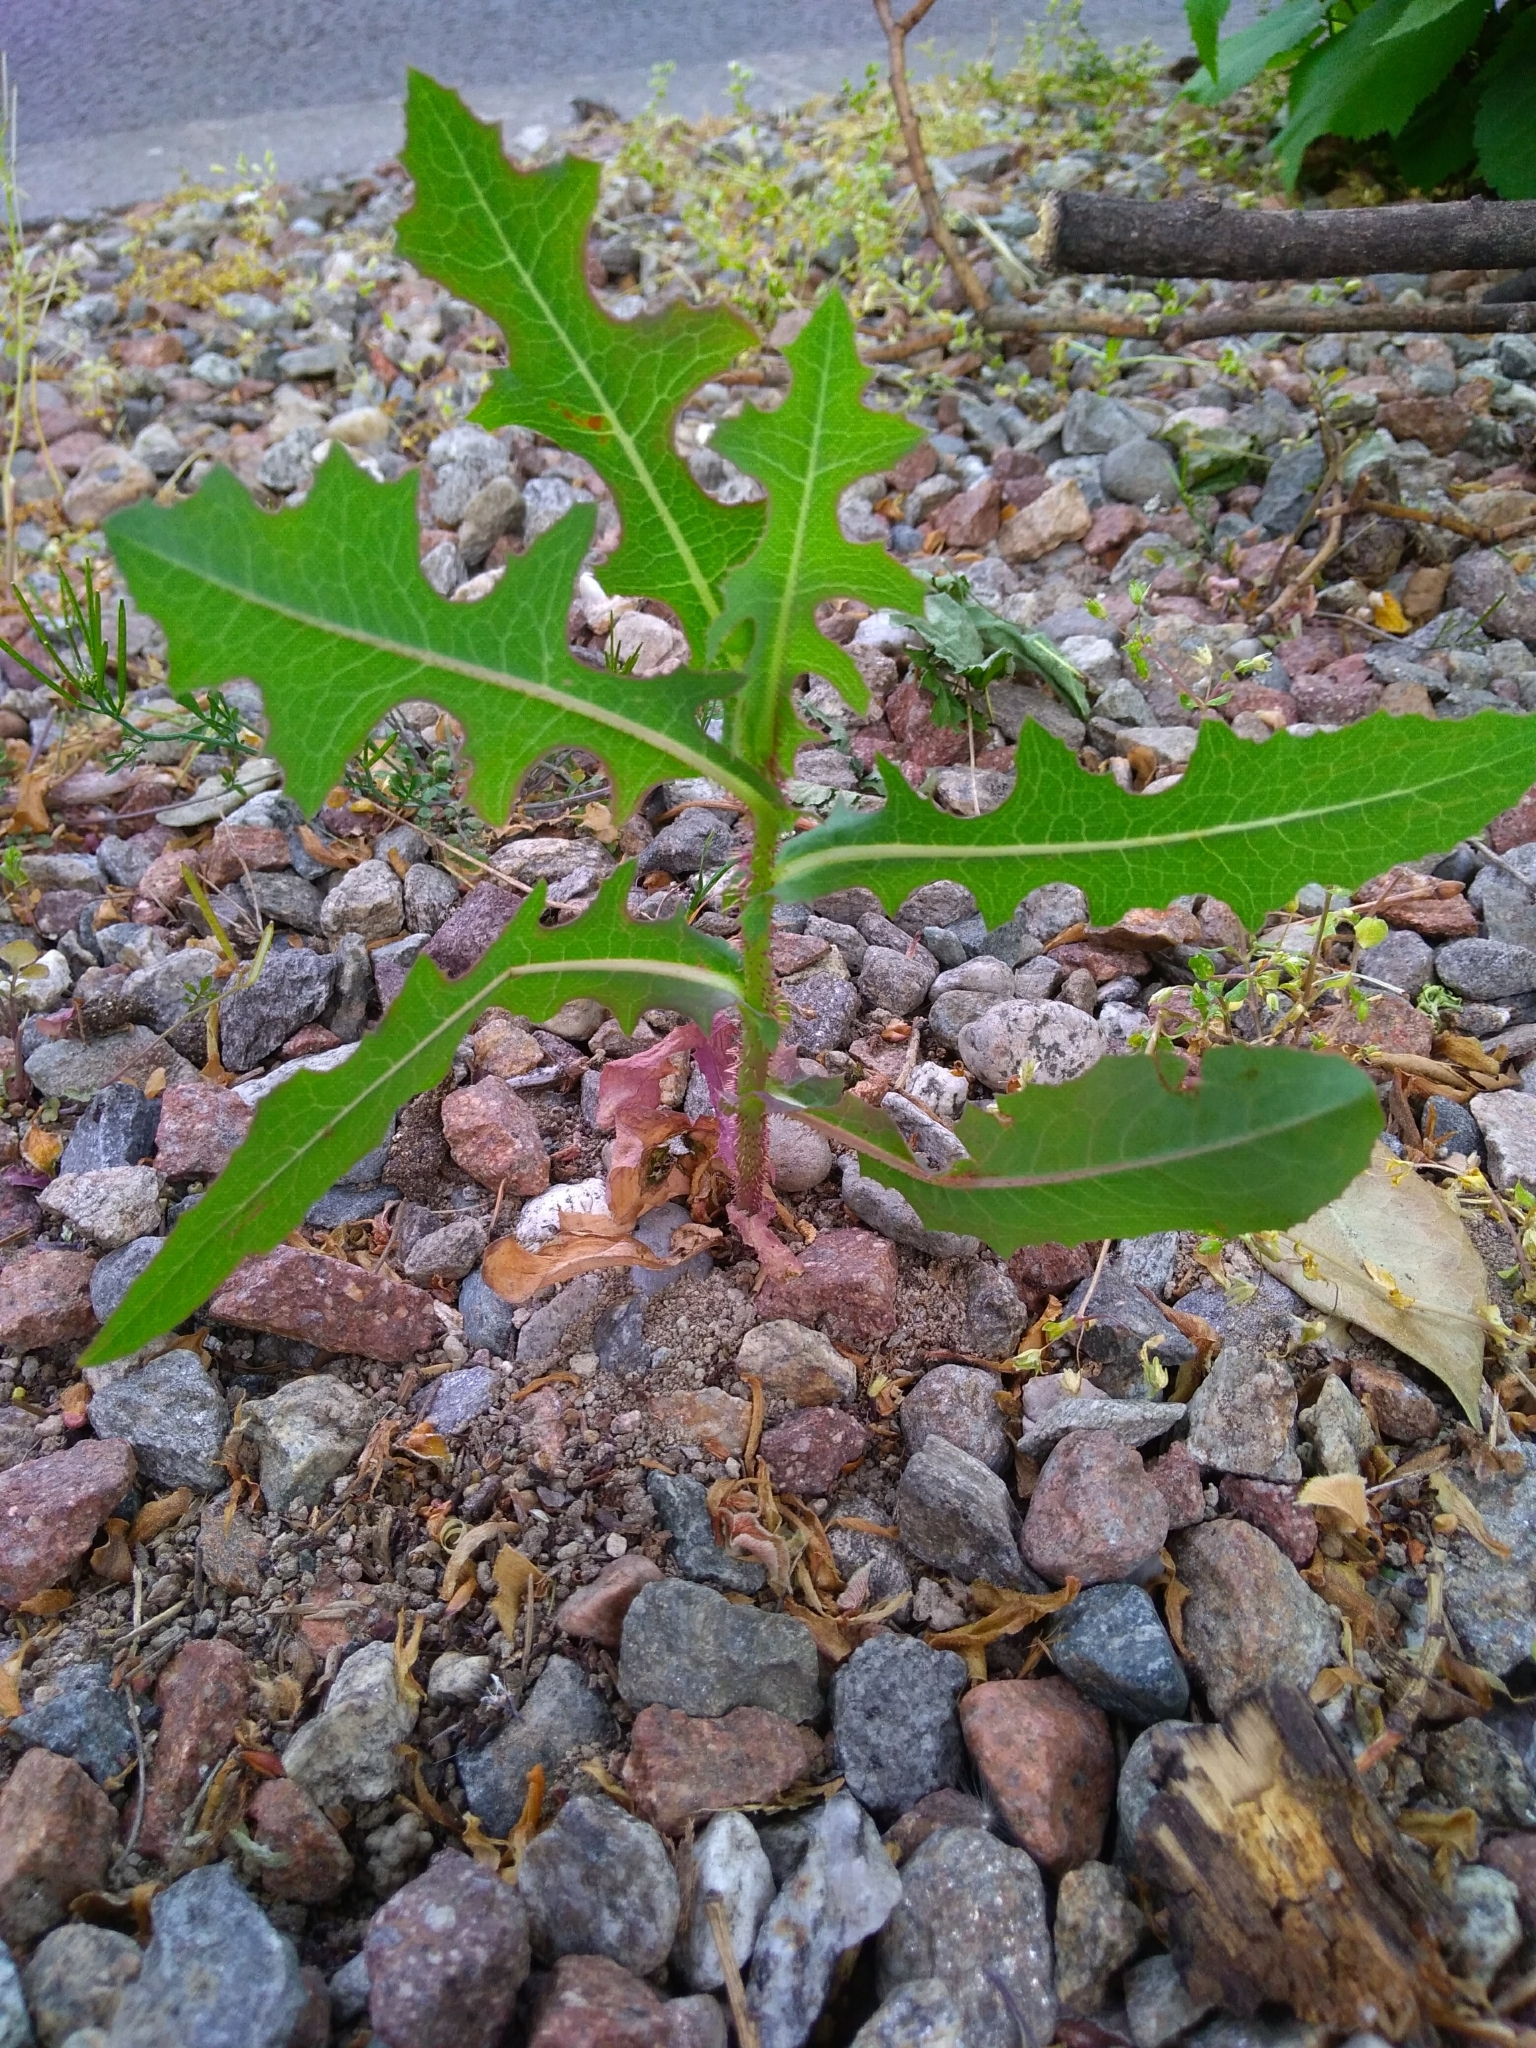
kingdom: Plantae
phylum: Tracheophyta
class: Magnoliopsida
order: Asterales
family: Asteraceae
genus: Lactuca
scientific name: Lactuca serriola
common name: Prickly lettuce
